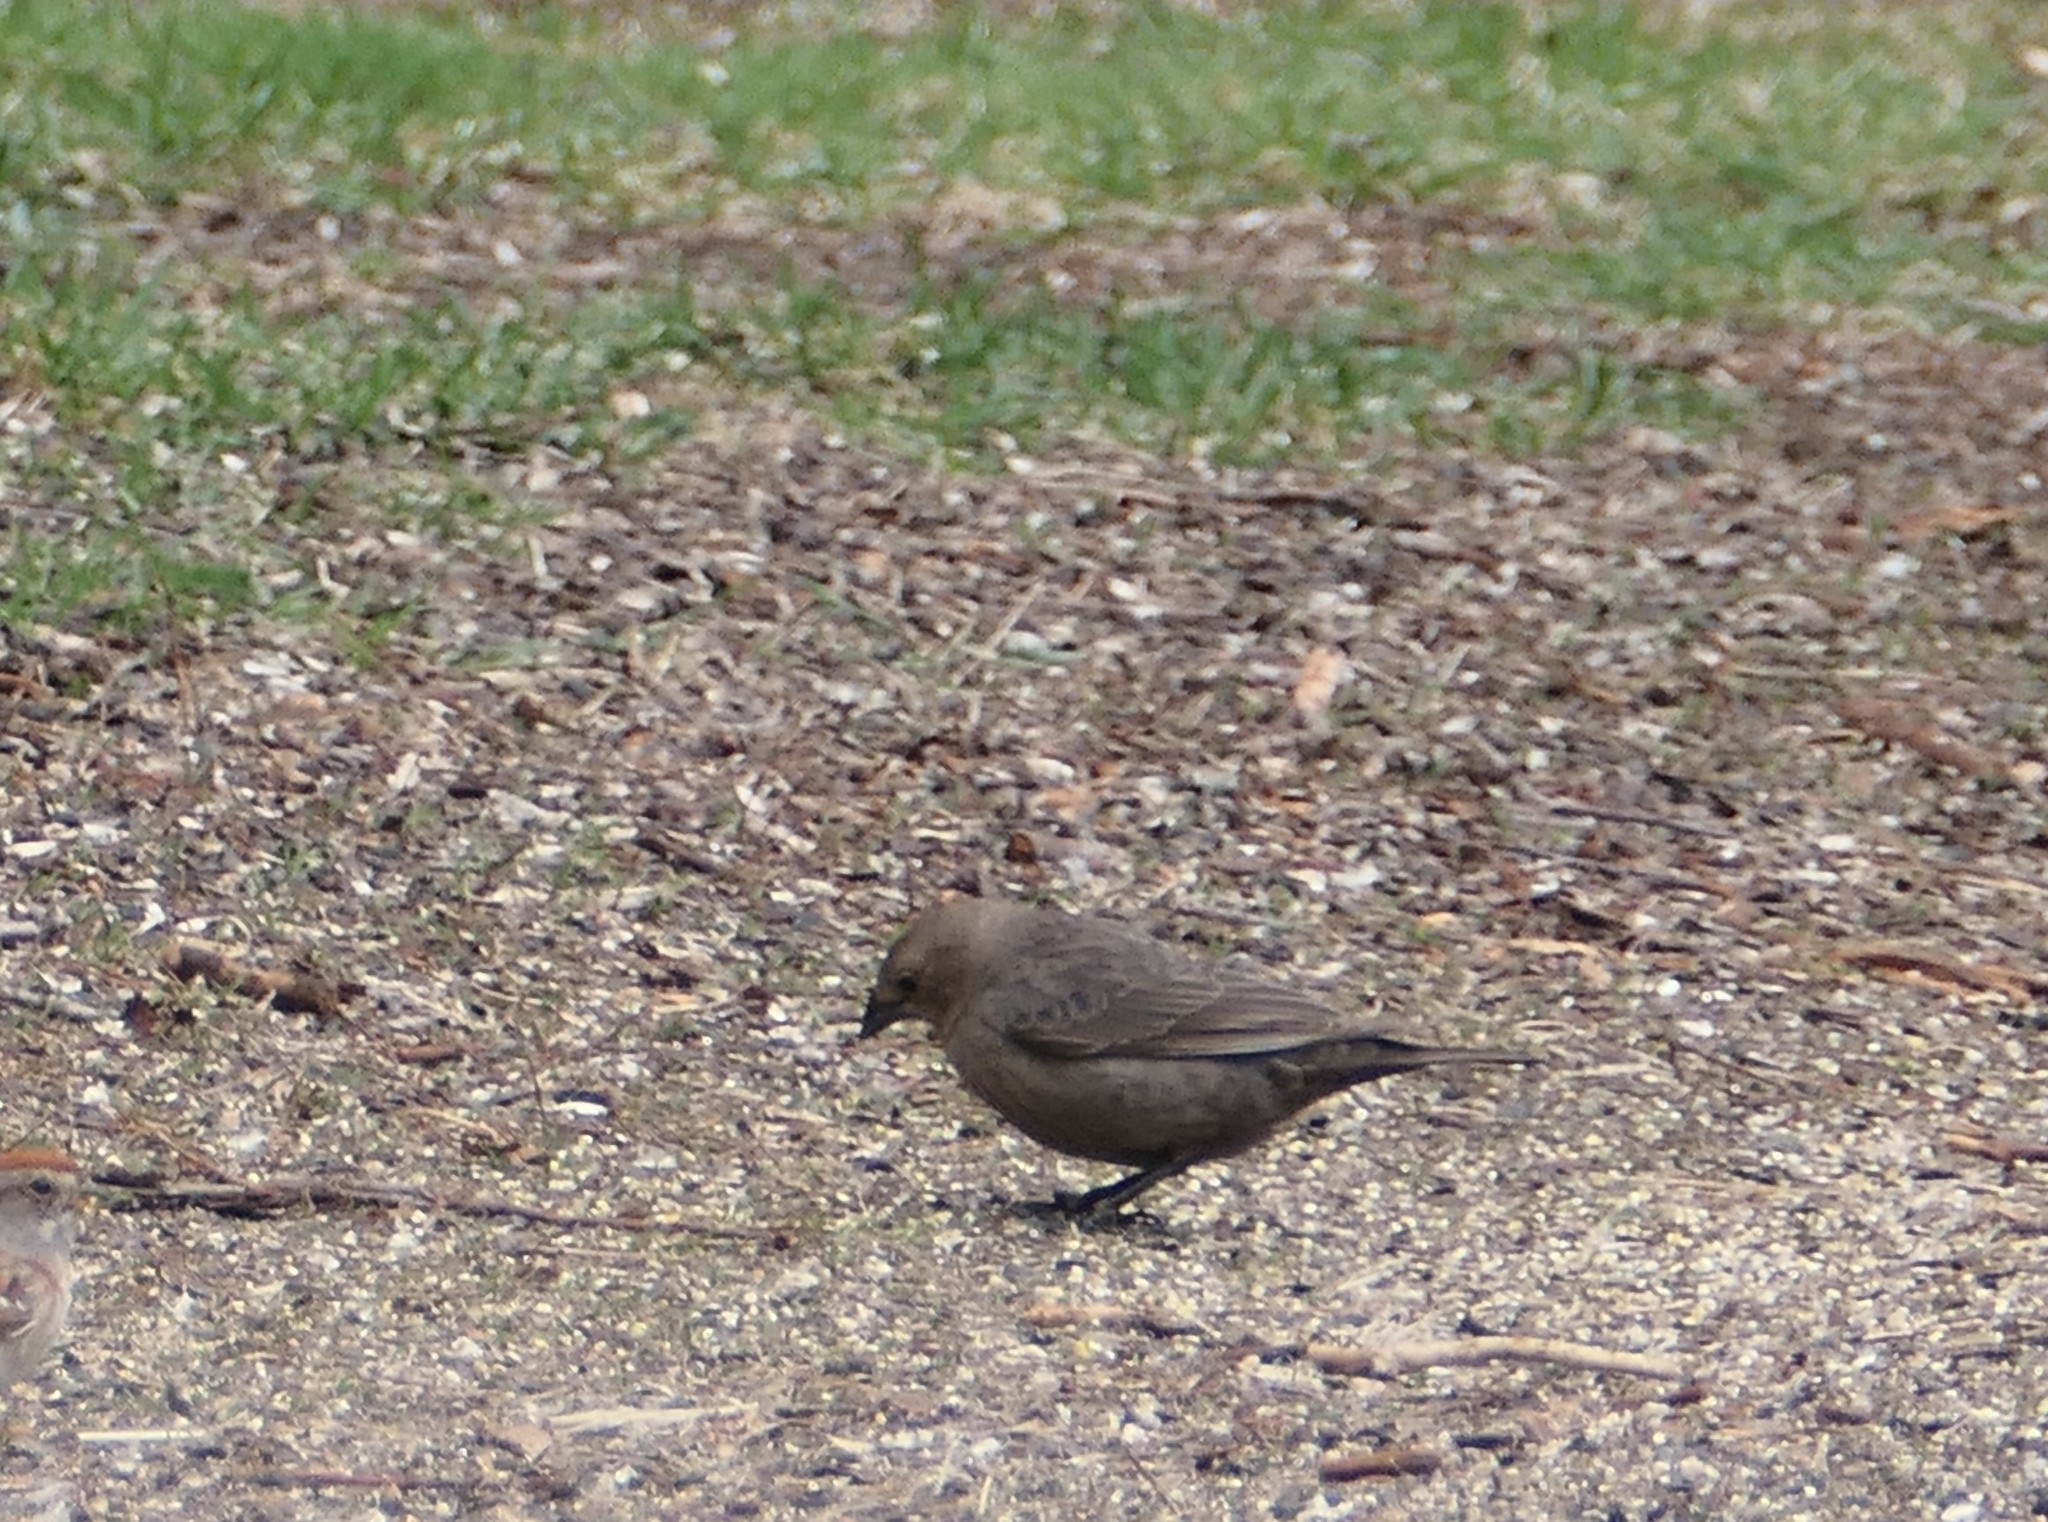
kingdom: Animalia
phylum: Chordata
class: Aves
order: Passeriformes
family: Icteridae
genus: Molothrus
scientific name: Molothrus ater
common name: Brown-headed cowbird
